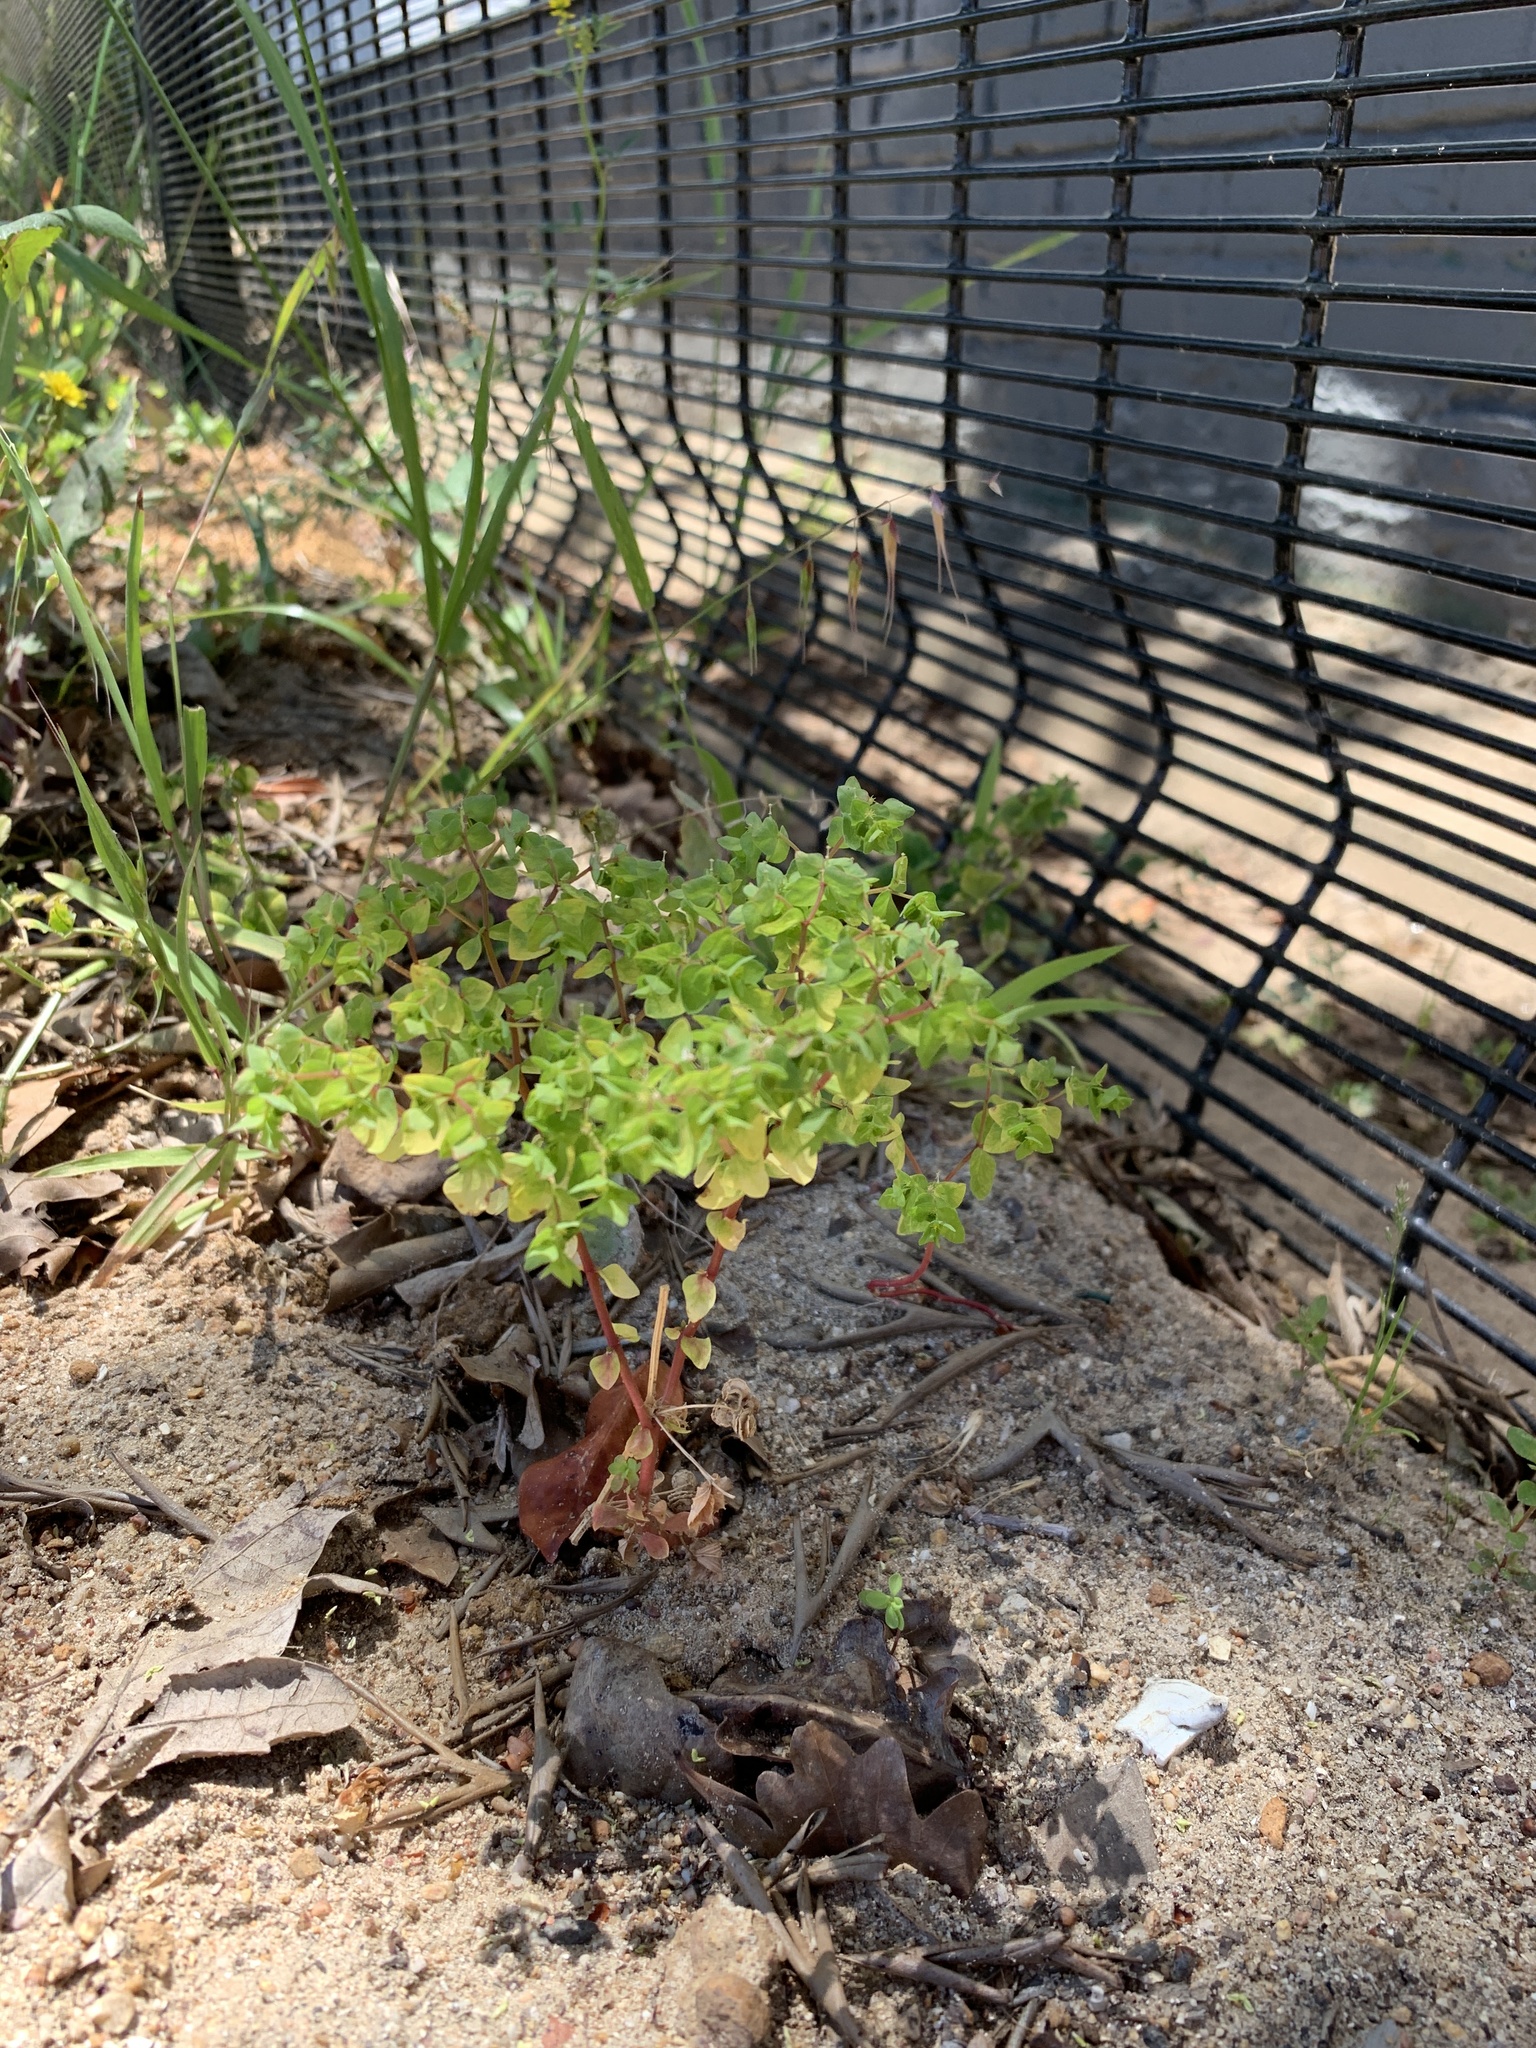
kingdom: Plantae
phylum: Tracheophyta
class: Magnoliopsida
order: Malpighiales
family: Euphorbiaceae
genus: Euphorbia
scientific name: Euphorbia peplus
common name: Petty spurge
